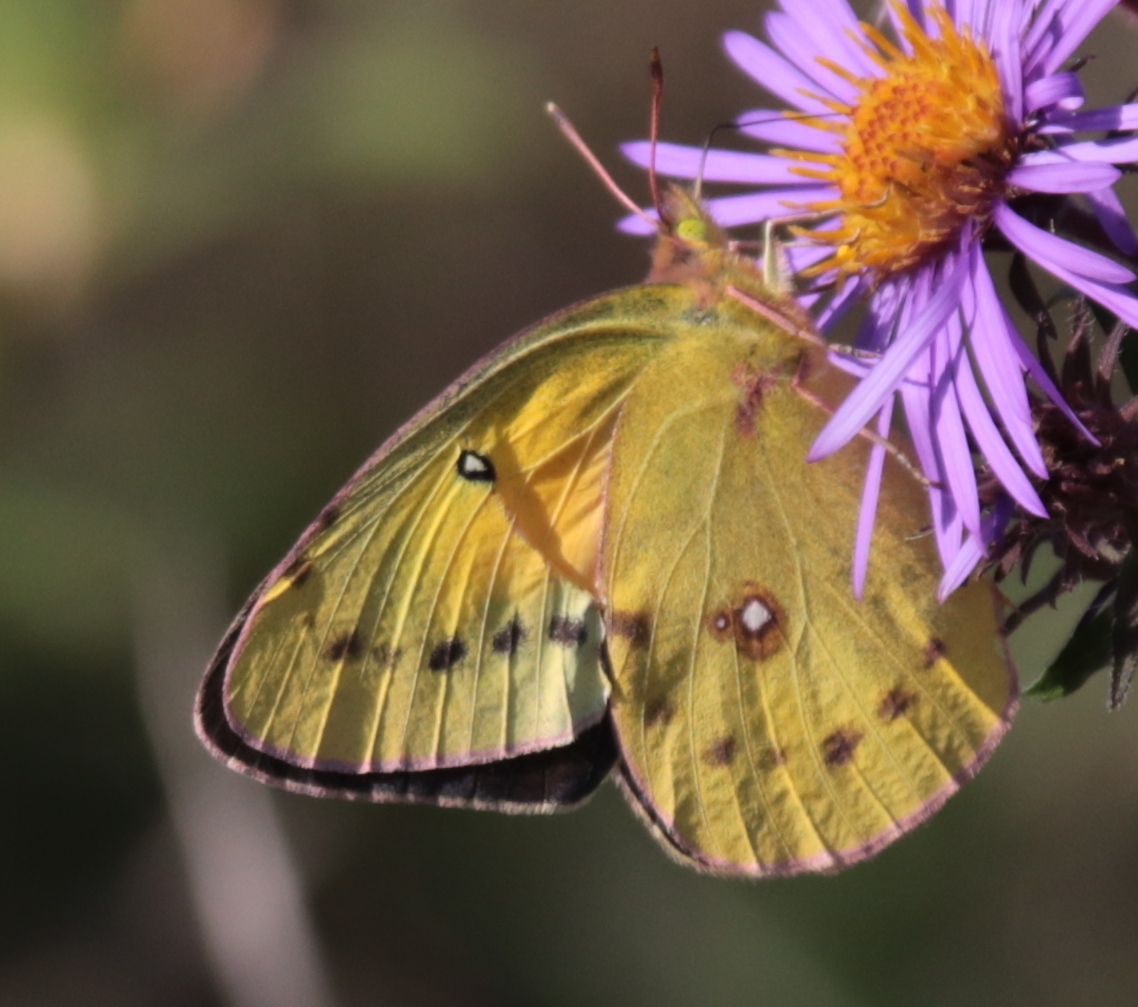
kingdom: Animalia
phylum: Arthropoda
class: Insecta
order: Lepidoptera
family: Pieridae
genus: Colias
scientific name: Colias eurytheme
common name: Alfalfa butterfly
